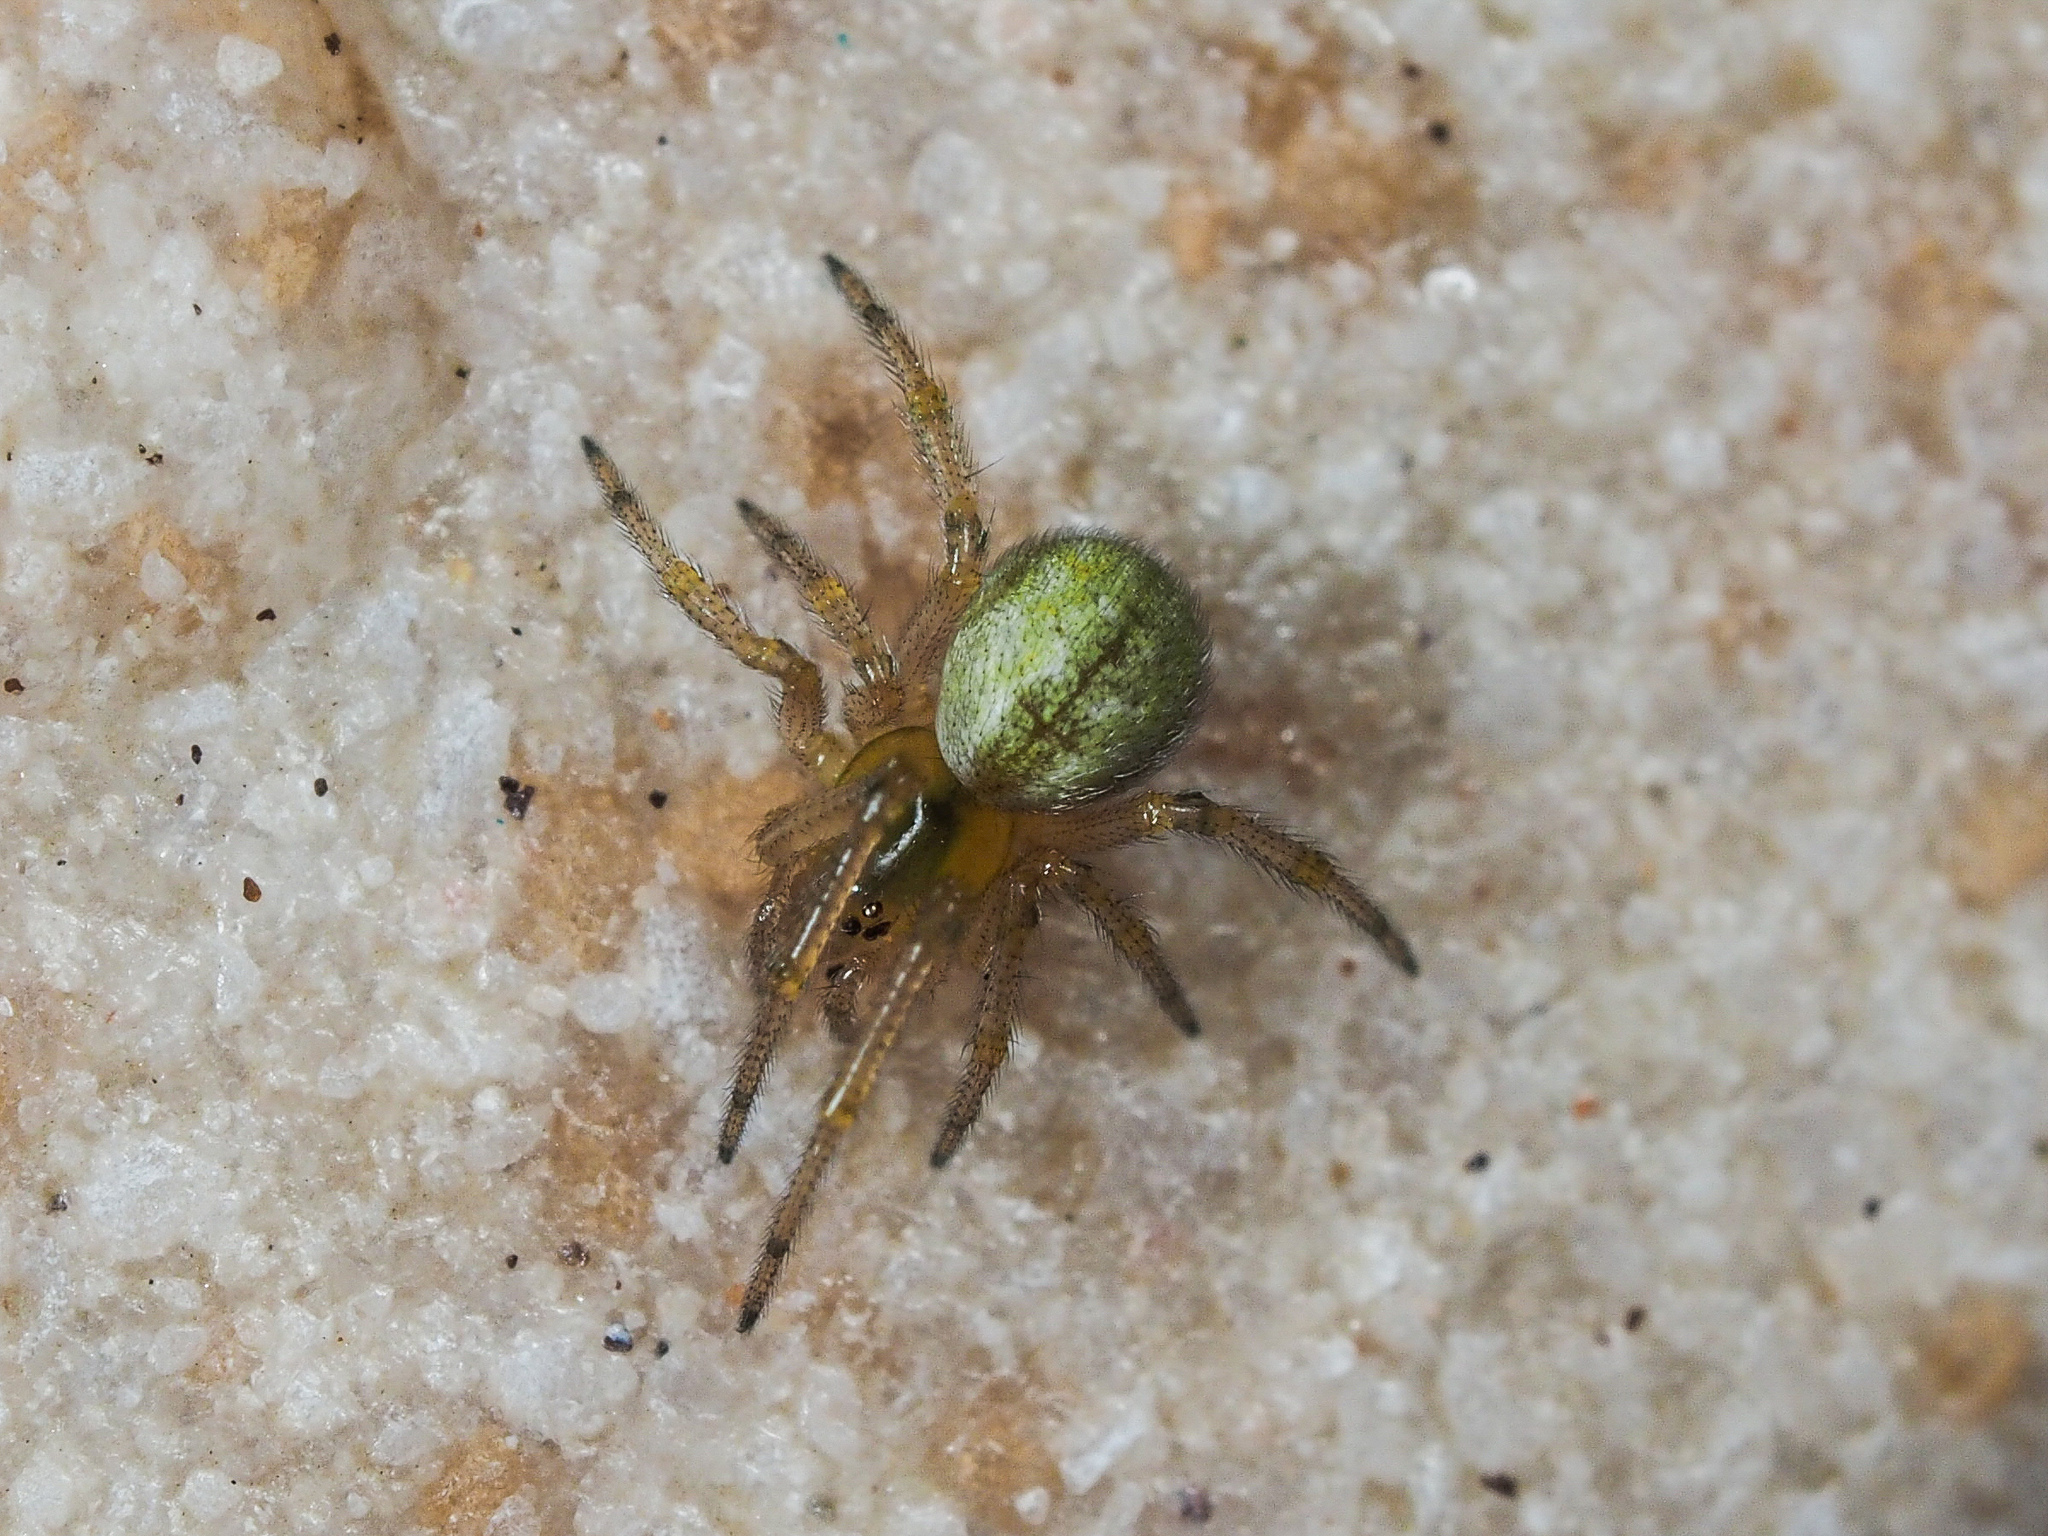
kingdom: Animalia
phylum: Arthropoda
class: Arachnida
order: Araneae
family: Theridiidae
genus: Kochiura
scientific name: Kochiura aulica
